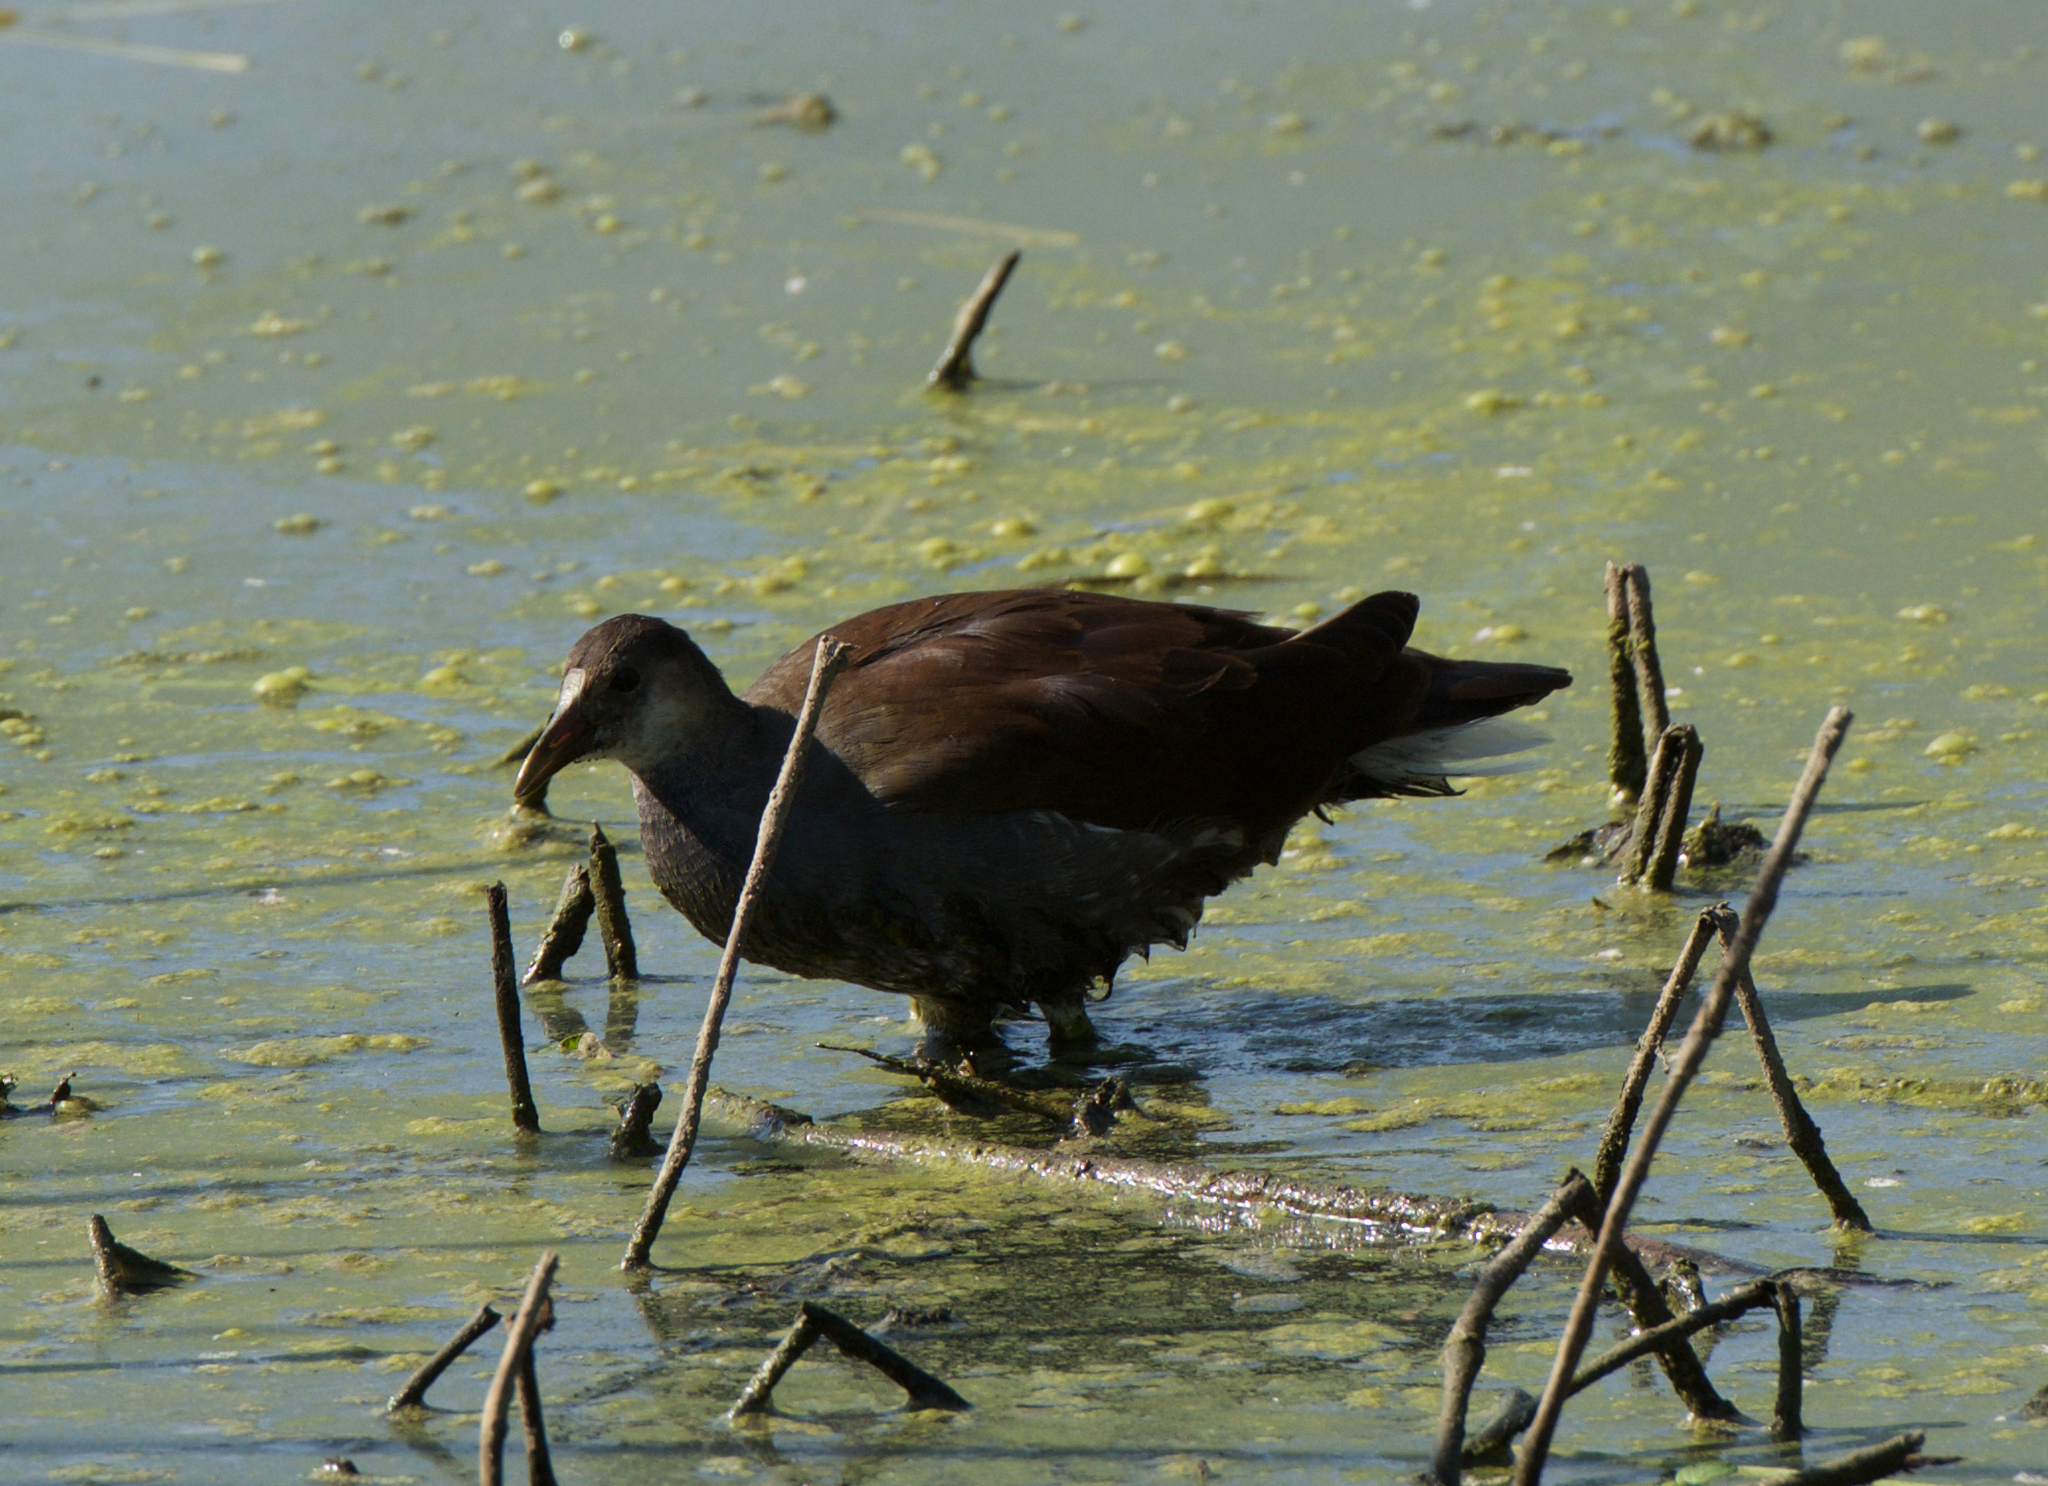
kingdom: Animalia
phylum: Chordata
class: Aves
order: Gruiformes
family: Rallidae
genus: Gallinula
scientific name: Gallinula chloropus
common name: Common moorhen
